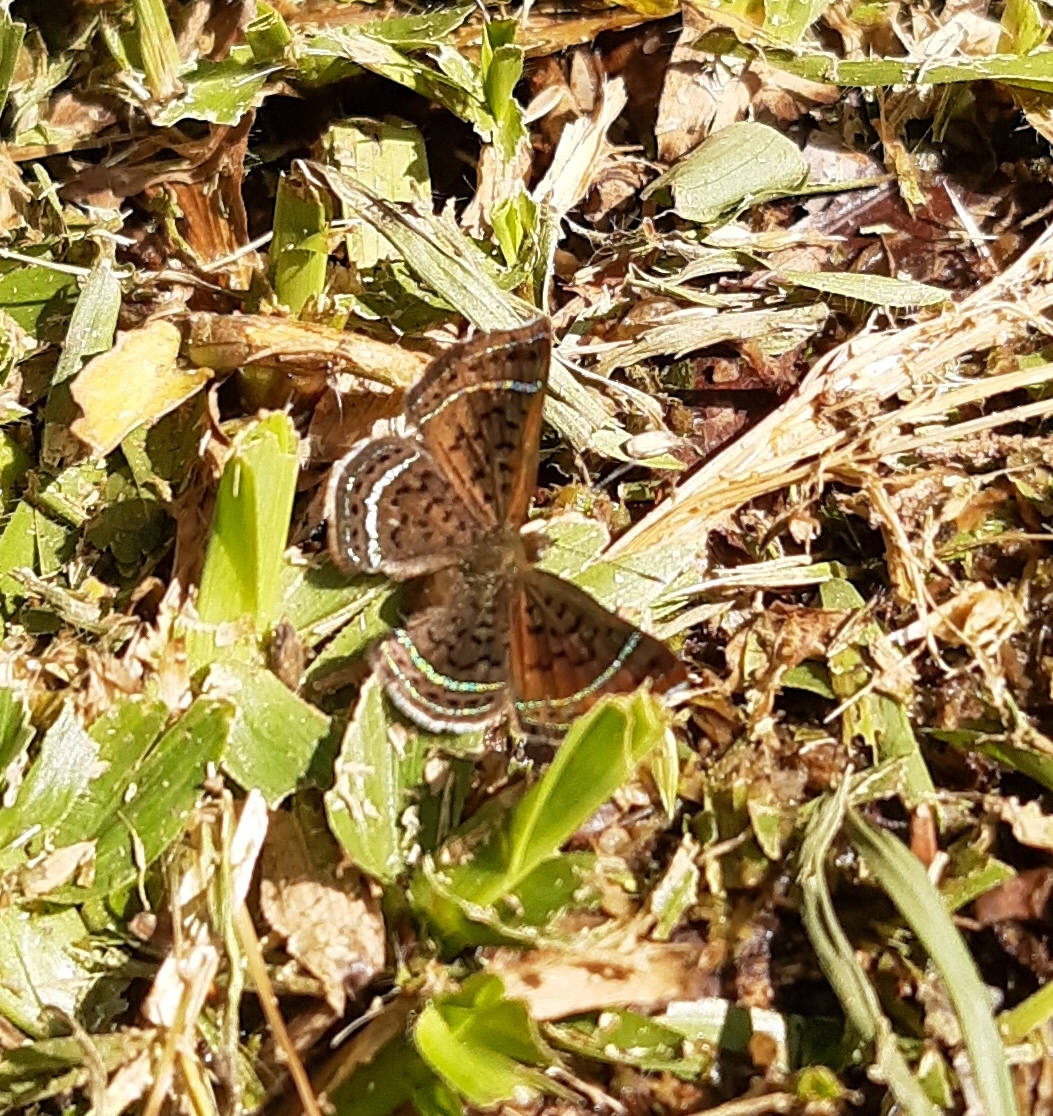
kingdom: Animalia
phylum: Arthropoda
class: Insecta
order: Lepidoptera
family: Riodinidae
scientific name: Riodinidae
